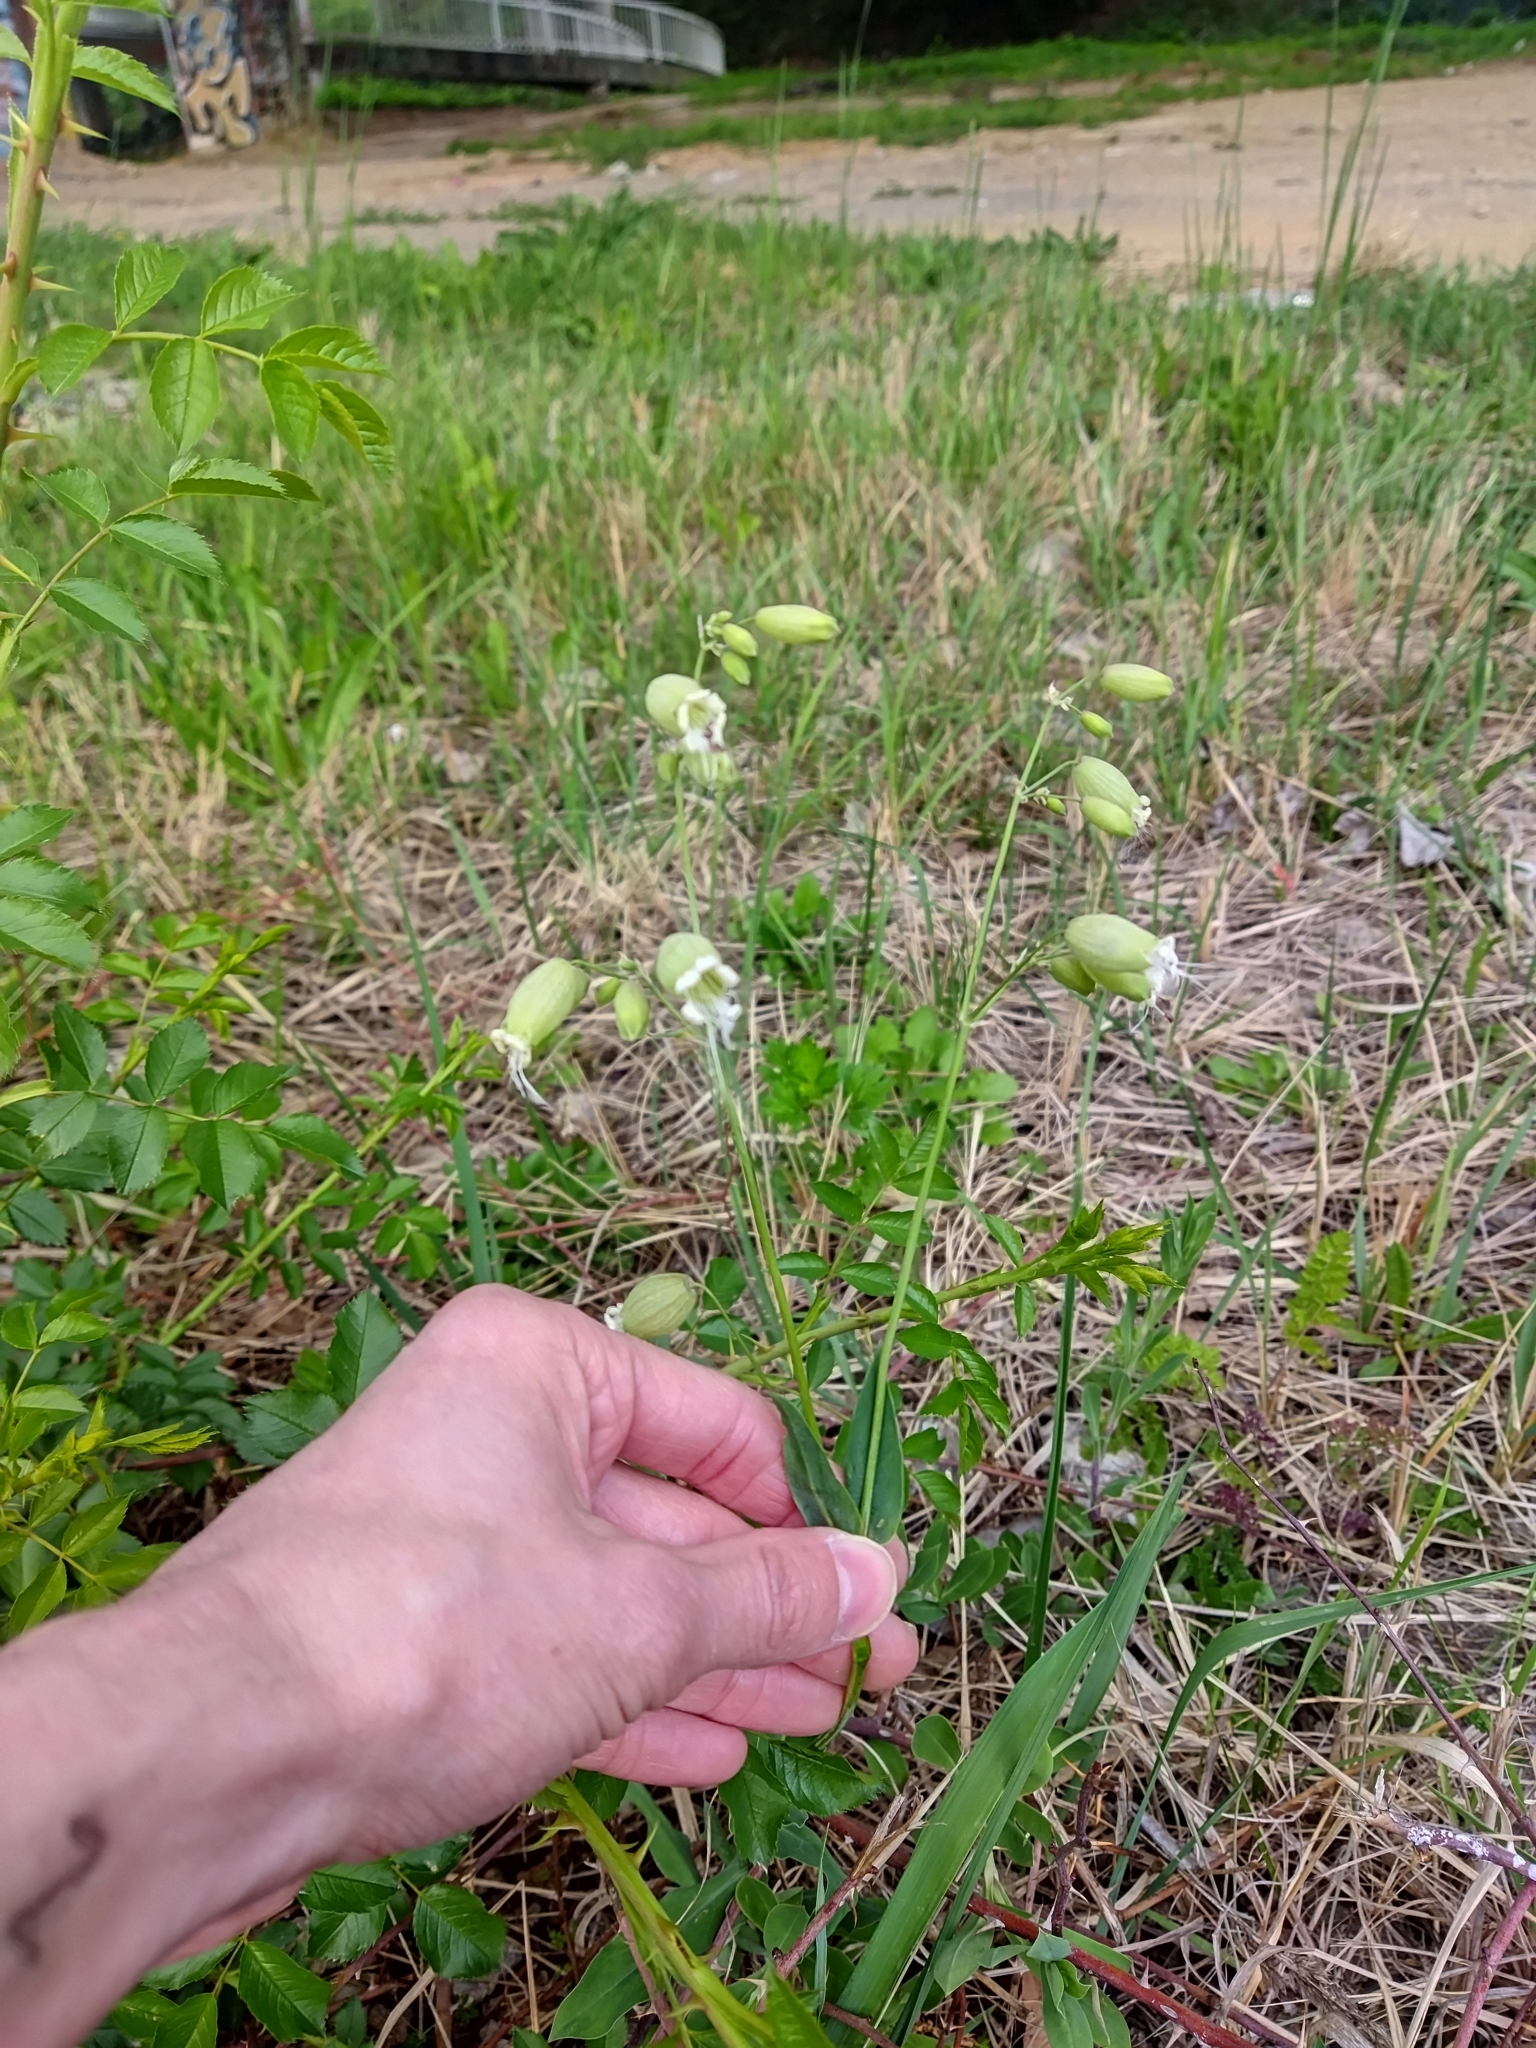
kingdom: Plantae
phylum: Tracheophyta
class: Magnoliopsida
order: Caryophyllales
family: Caryophyllaceae
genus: Silene
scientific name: Silene vulgaris
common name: Bladder campion
